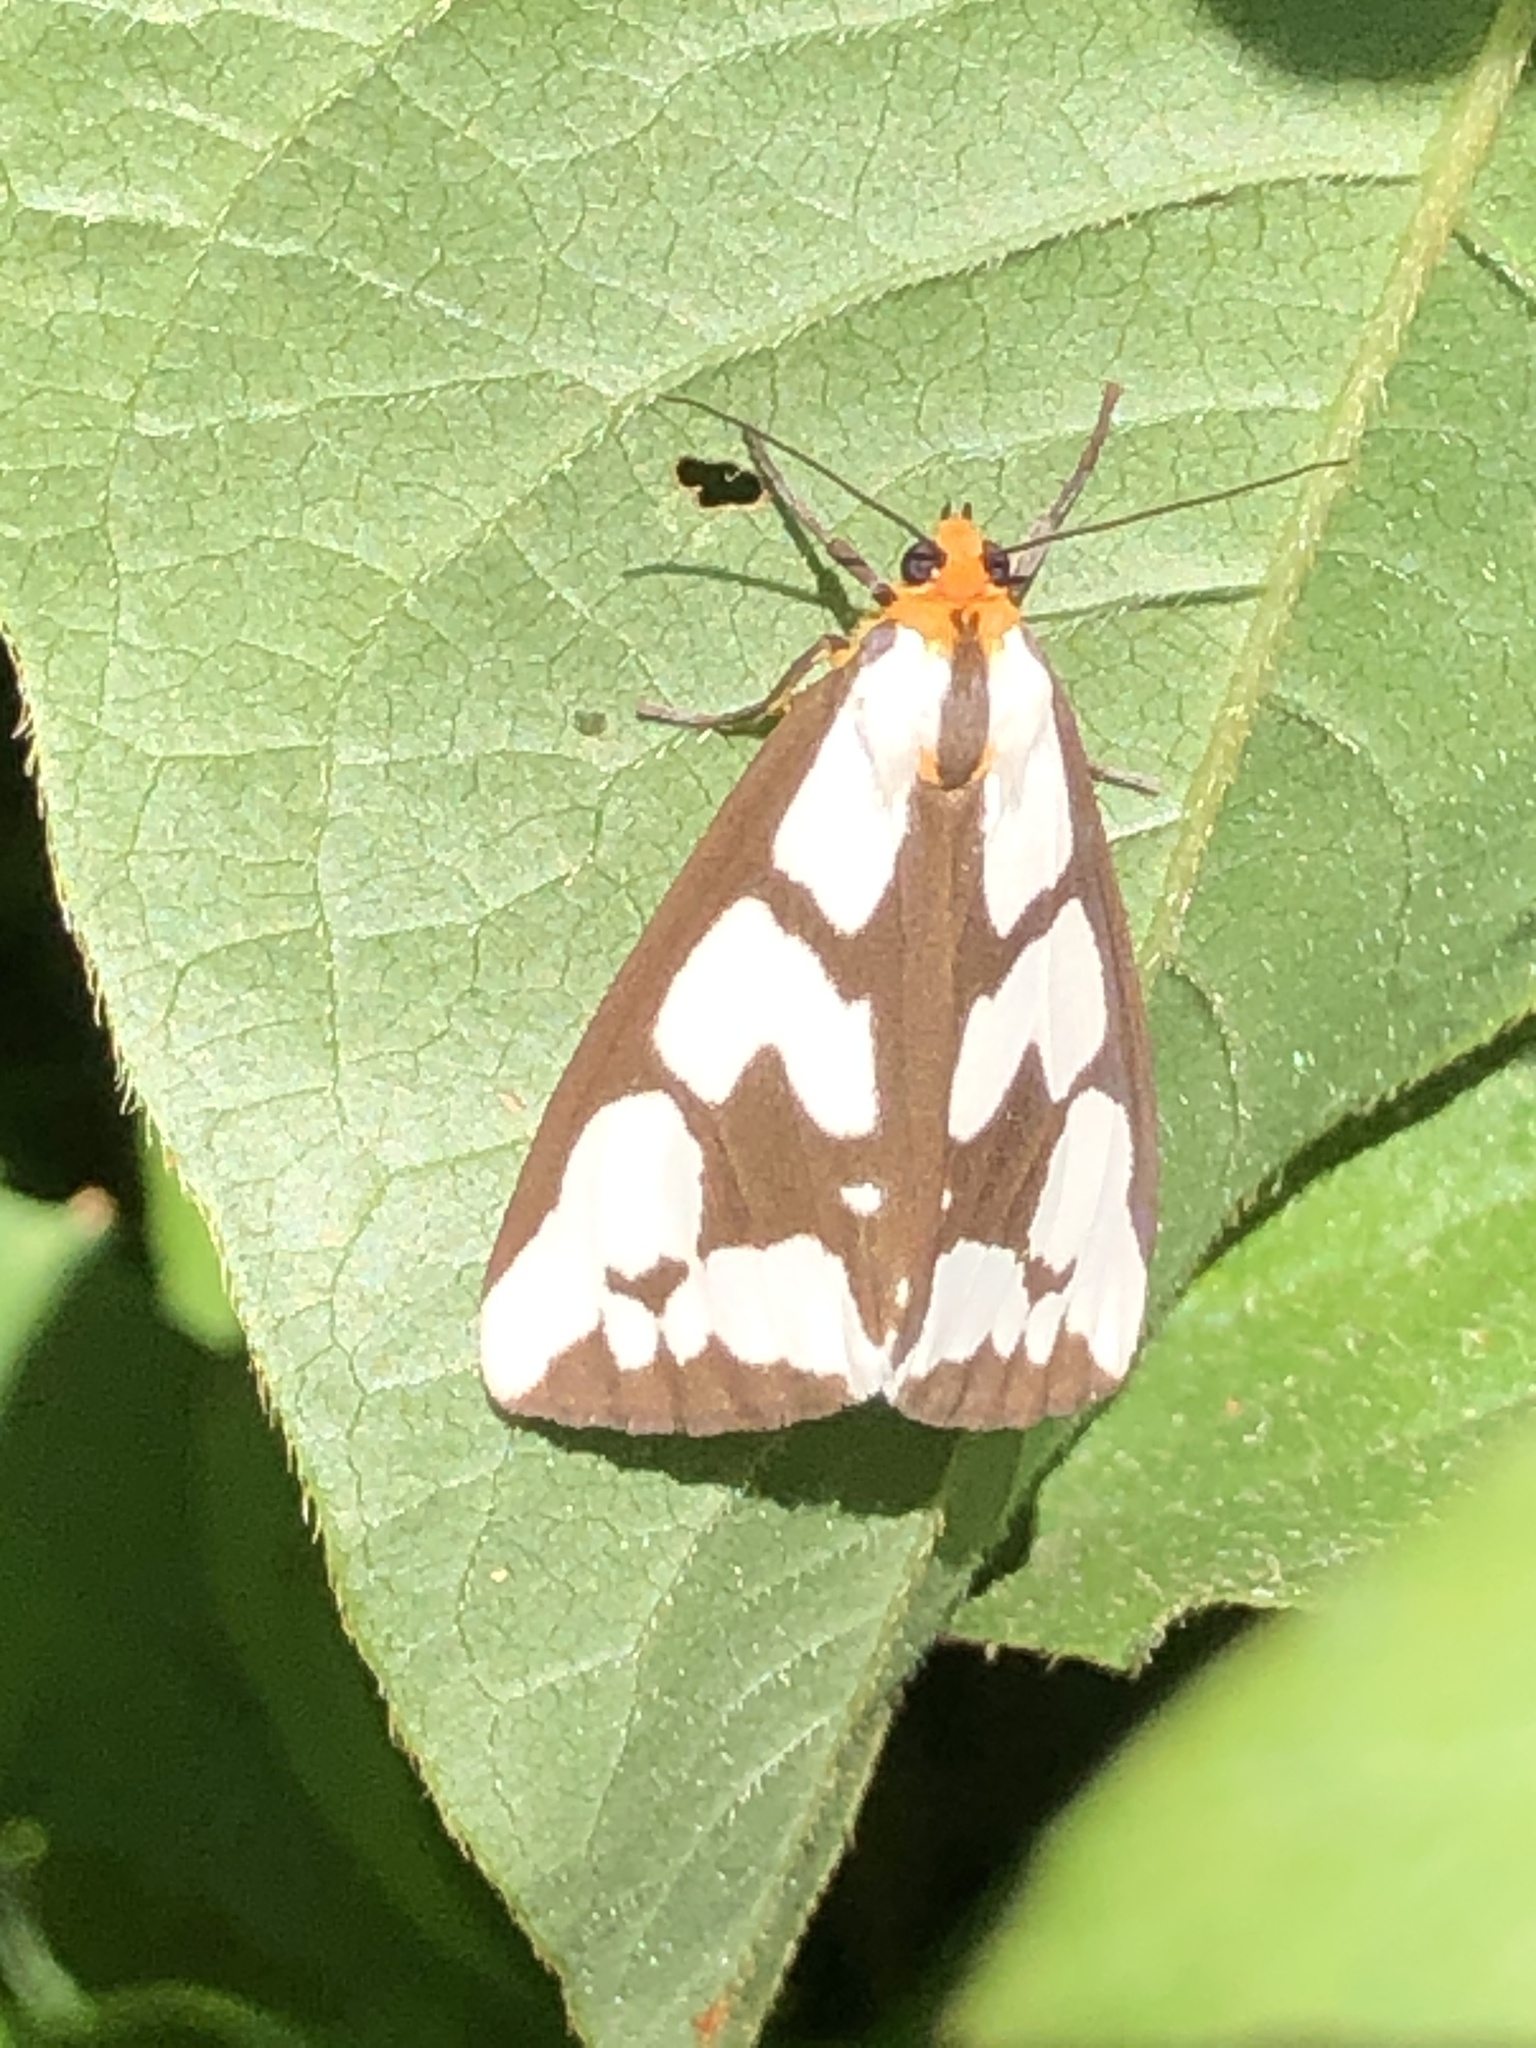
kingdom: Animalia
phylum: Arthropoda
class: Insecta
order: Lepidoptera
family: Erebidae
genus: Haploa
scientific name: Haploa confusa
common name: Confused haploa moth
